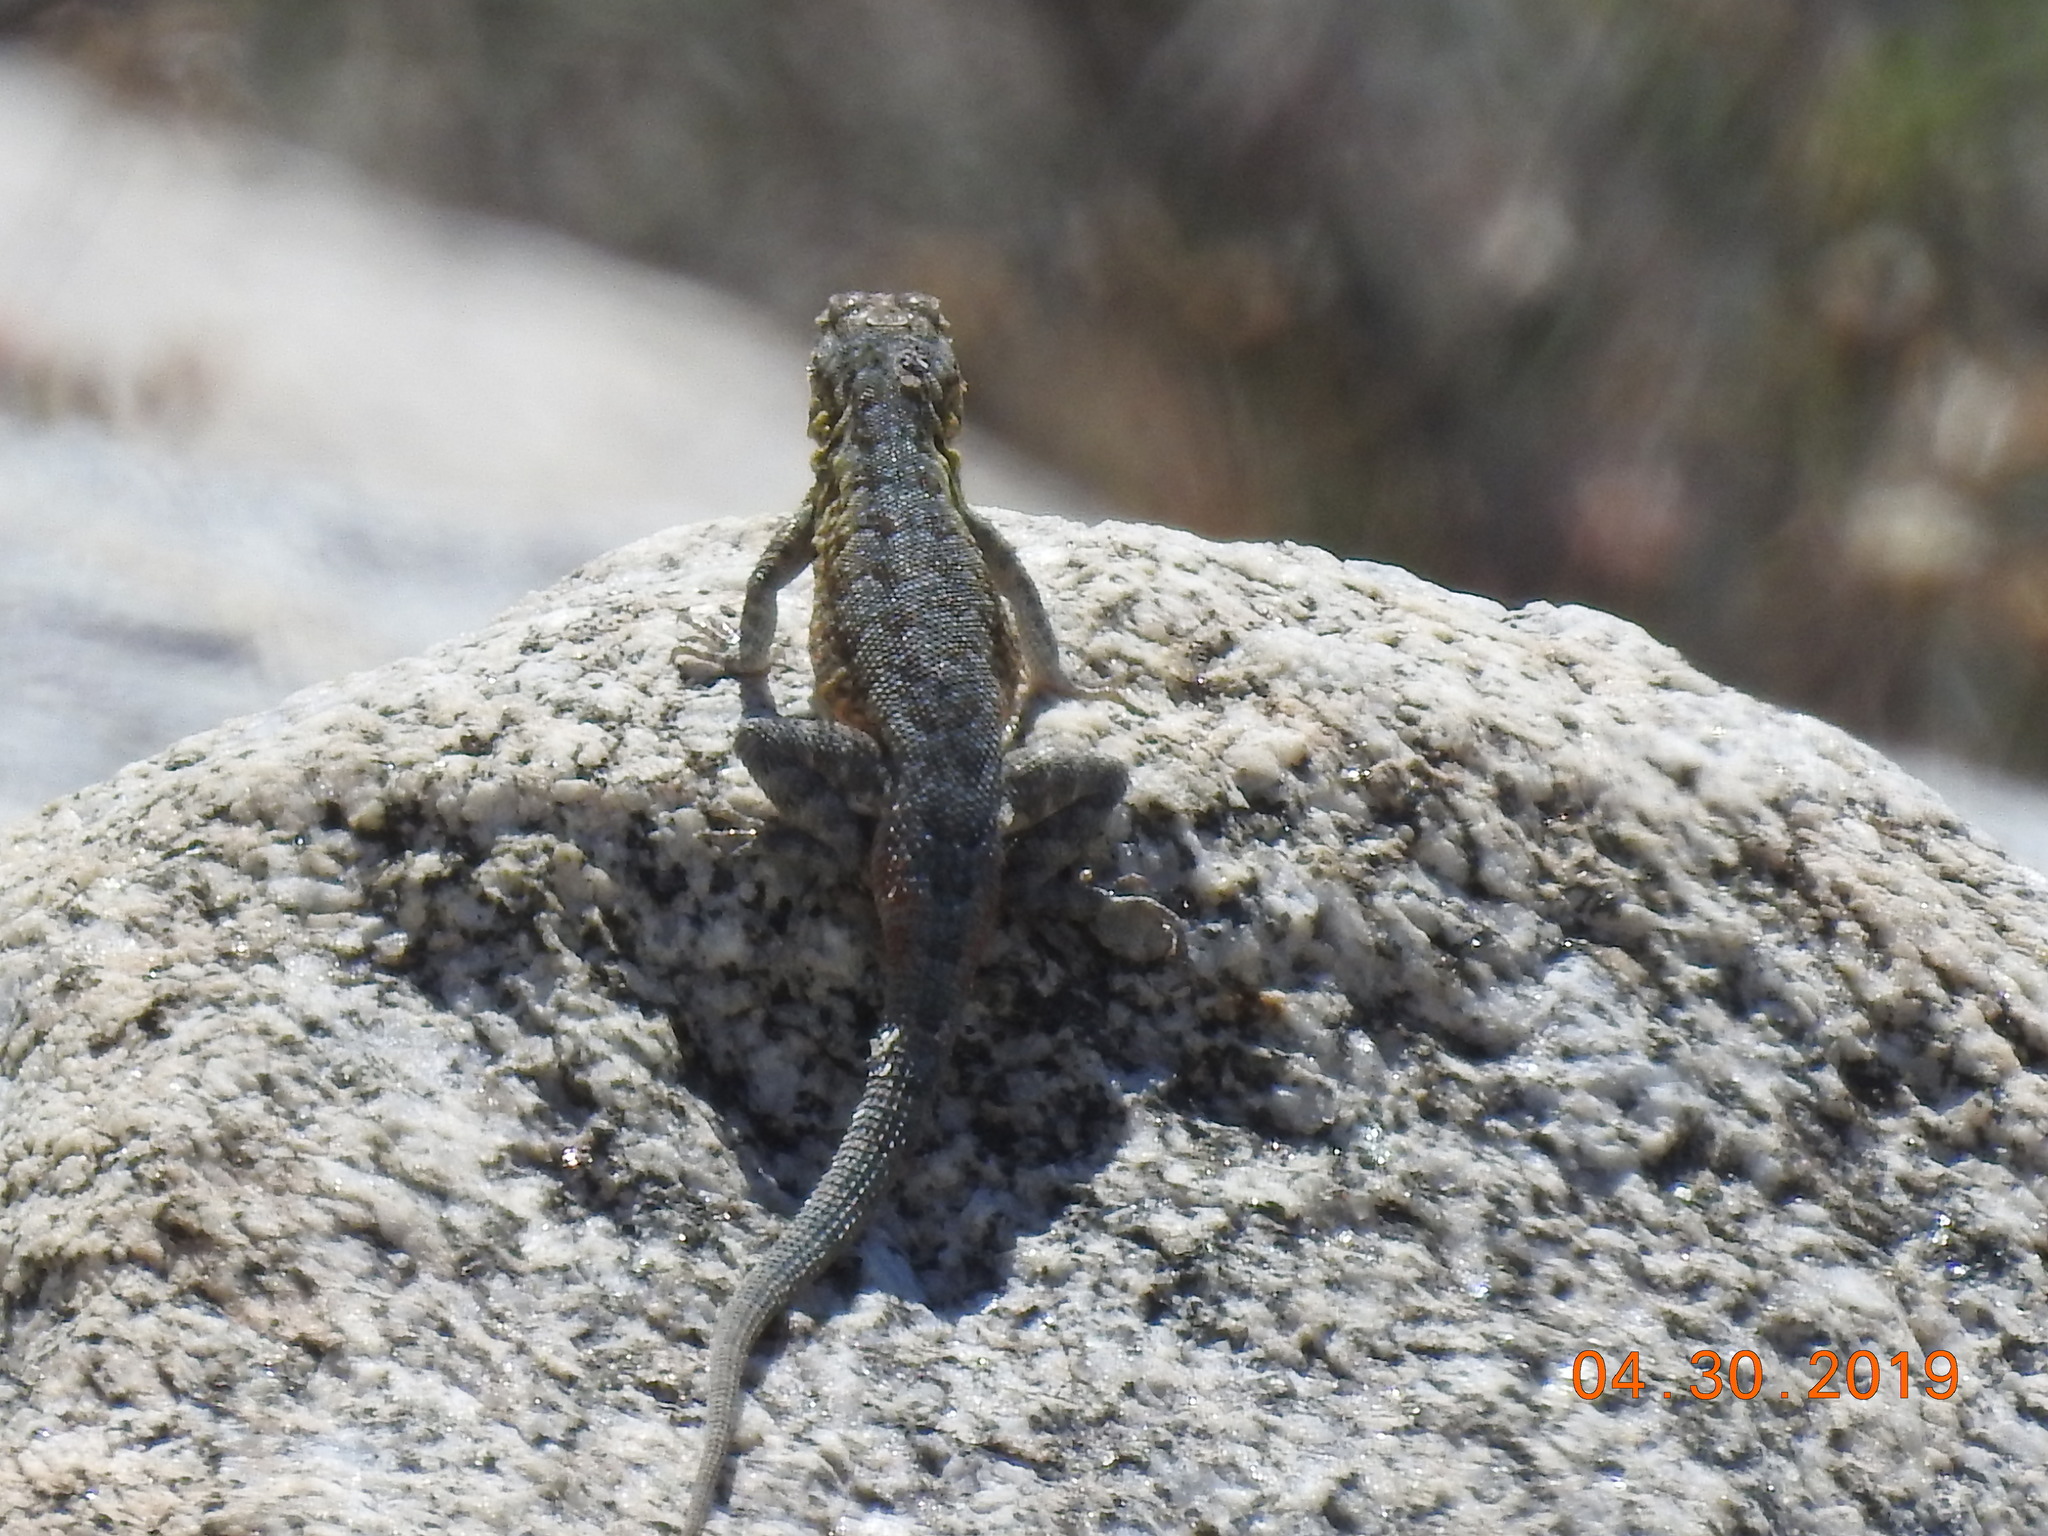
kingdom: Animalia
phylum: Chordata
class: Squamata
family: Phrynosomatidae
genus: Uta
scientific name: Uta stansburiana
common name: Side-blotched lizard
